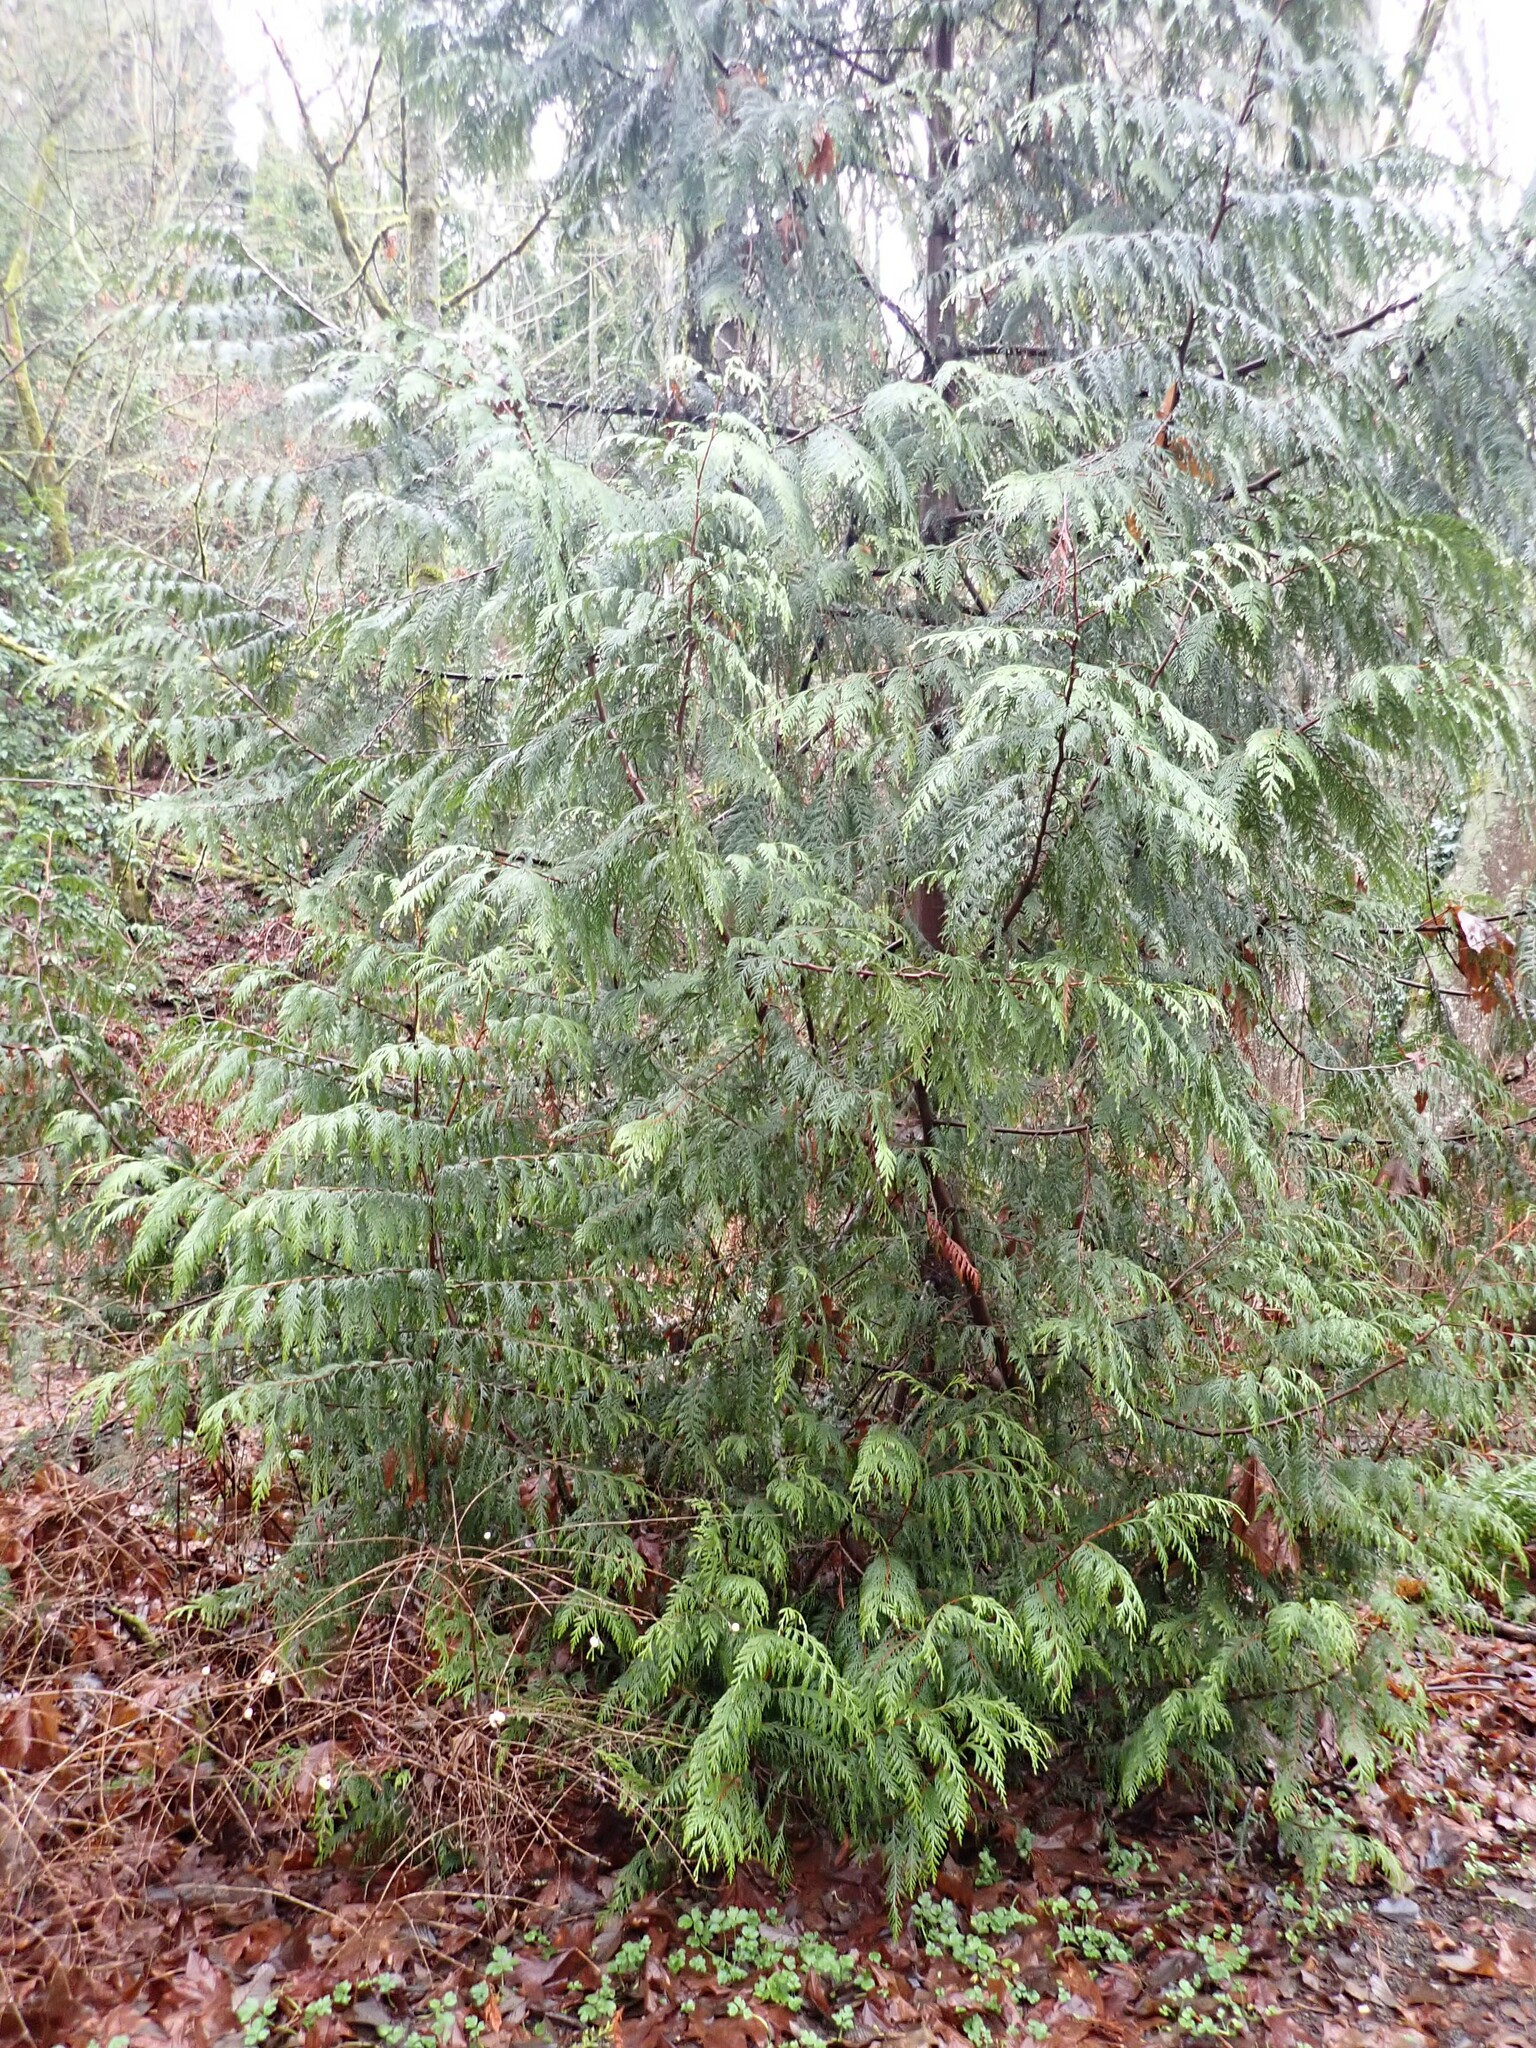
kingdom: Plantae
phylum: Tracheophyta
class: Pinopsida
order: Pinales
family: Cupressaceae
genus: Thuja
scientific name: Thuja plicata
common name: Western red-cedar
